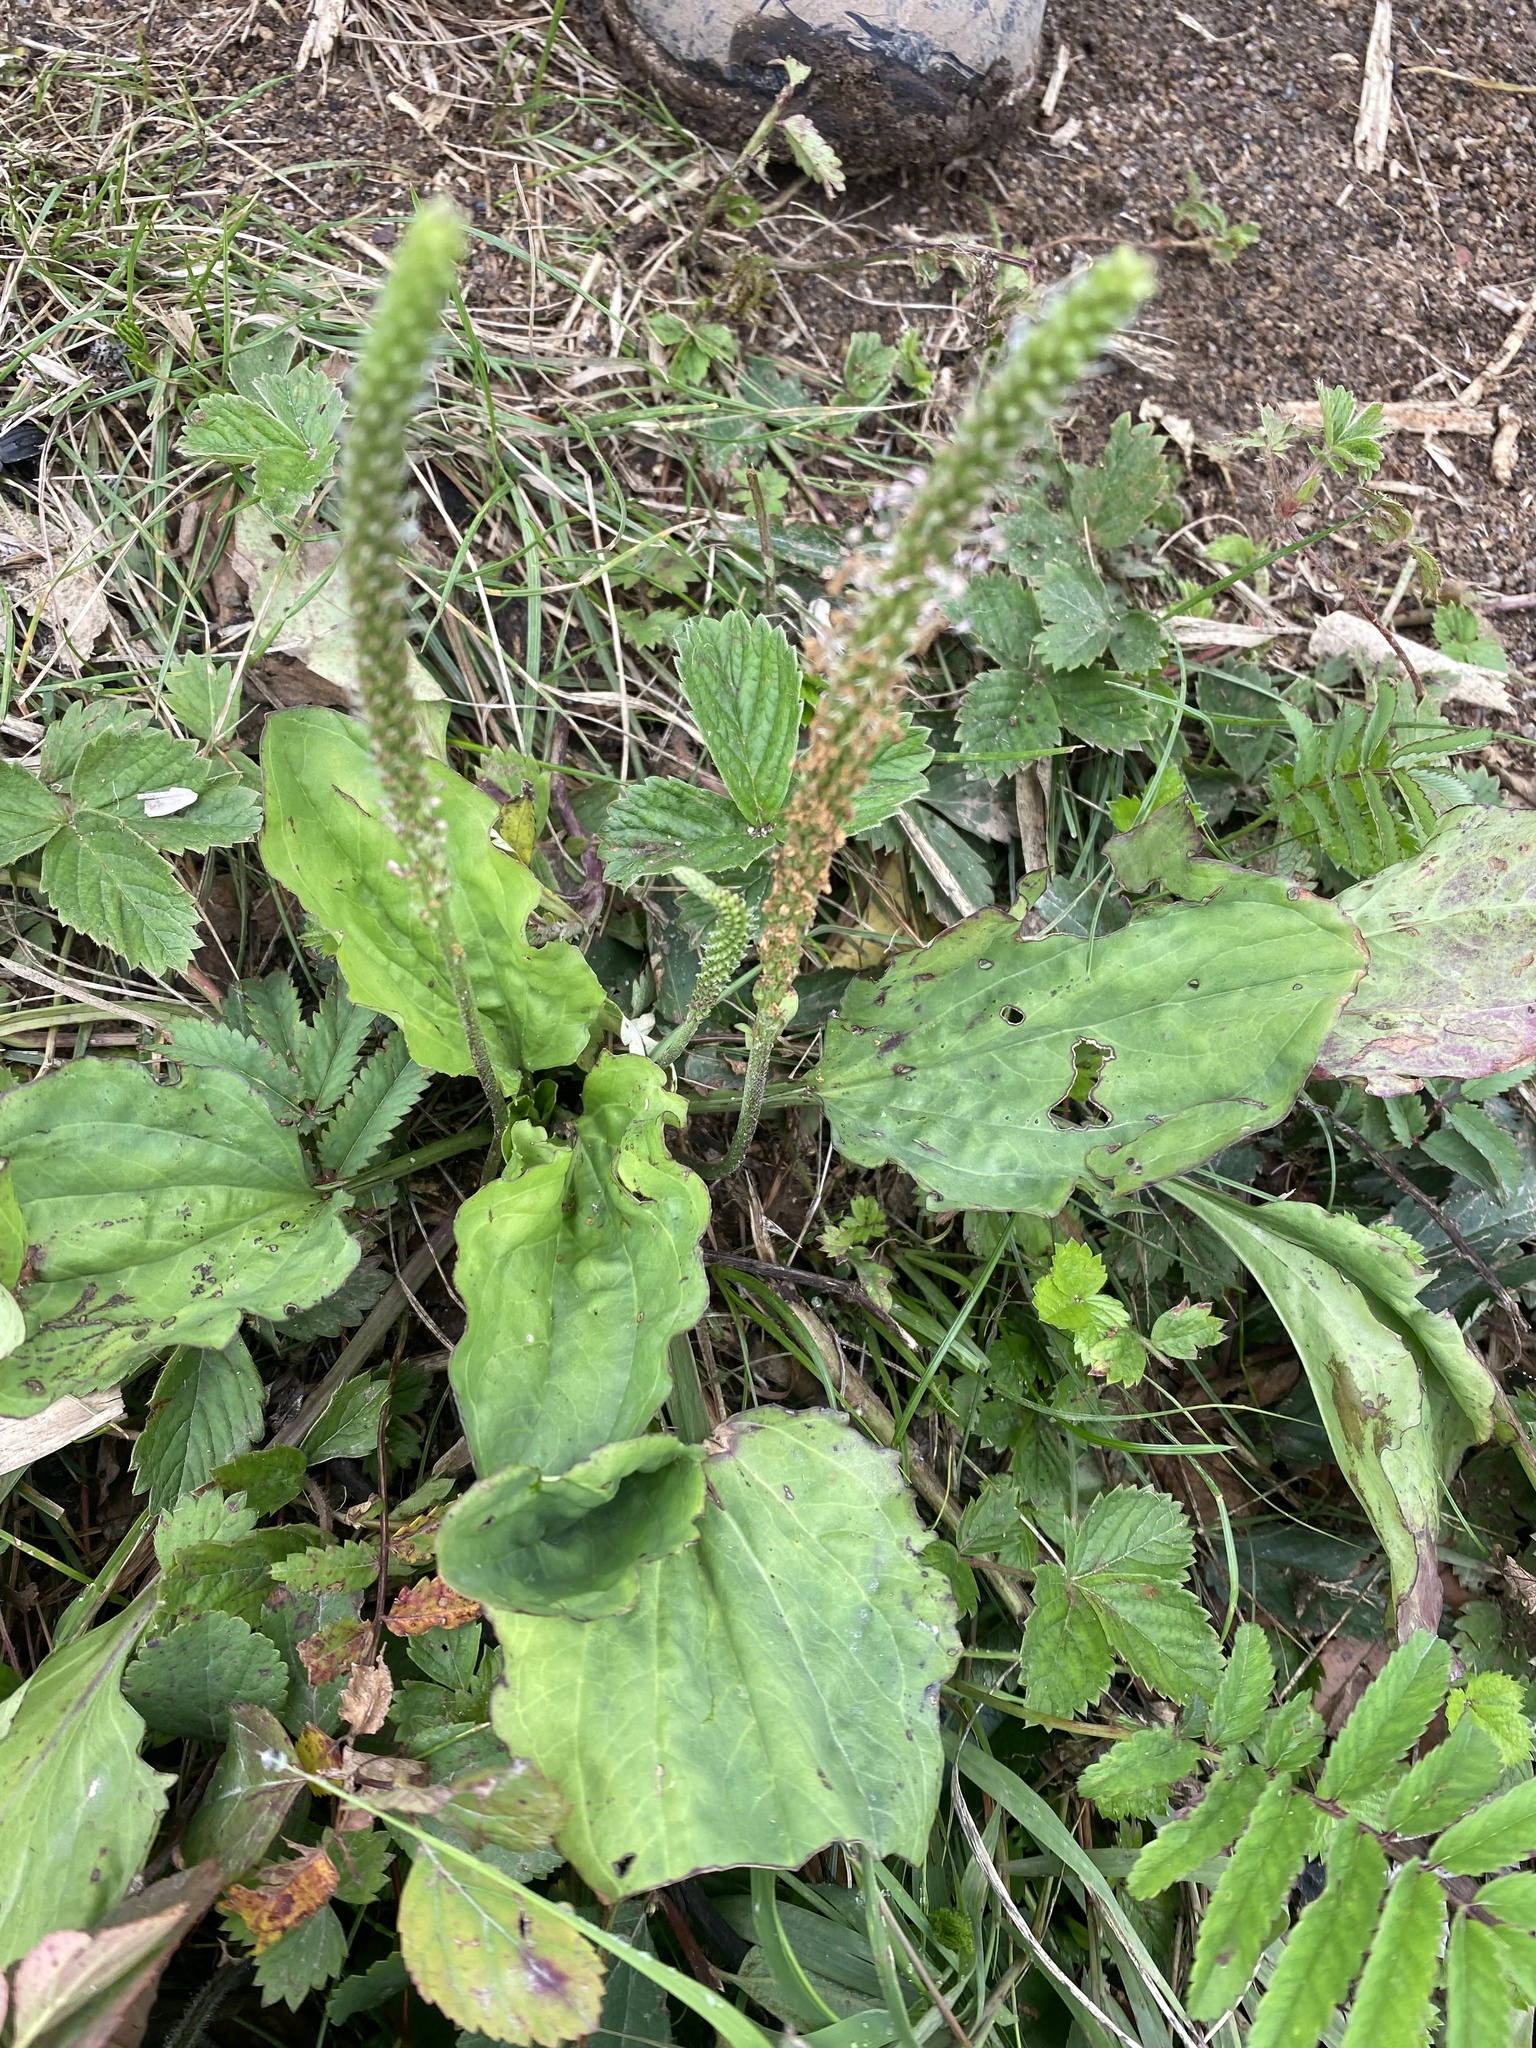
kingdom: Plantae
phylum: Tracheophyta
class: Magnoliopsida
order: Lamiales
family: Plantaginaceae
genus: Plantago
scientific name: Plantago major
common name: Common plantain
